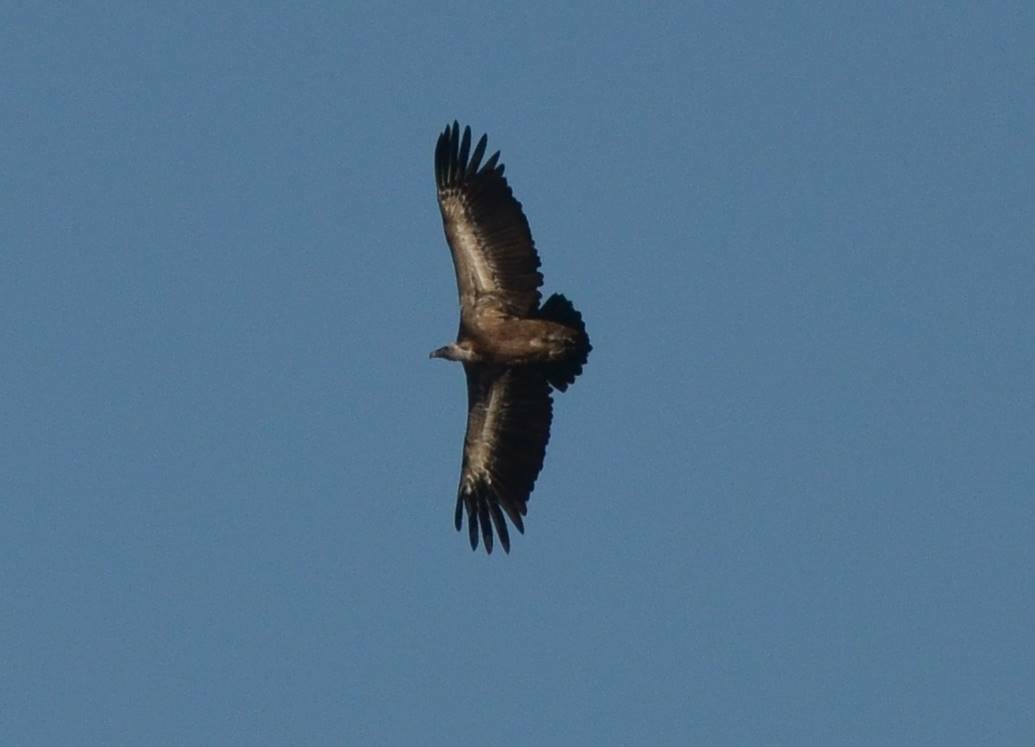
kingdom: Animalia
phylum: Chordata
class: Aves
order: Accipitriformes
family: Accipitridae
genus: Gyps
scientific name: Gyps fulvus
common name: Griffon vulture
